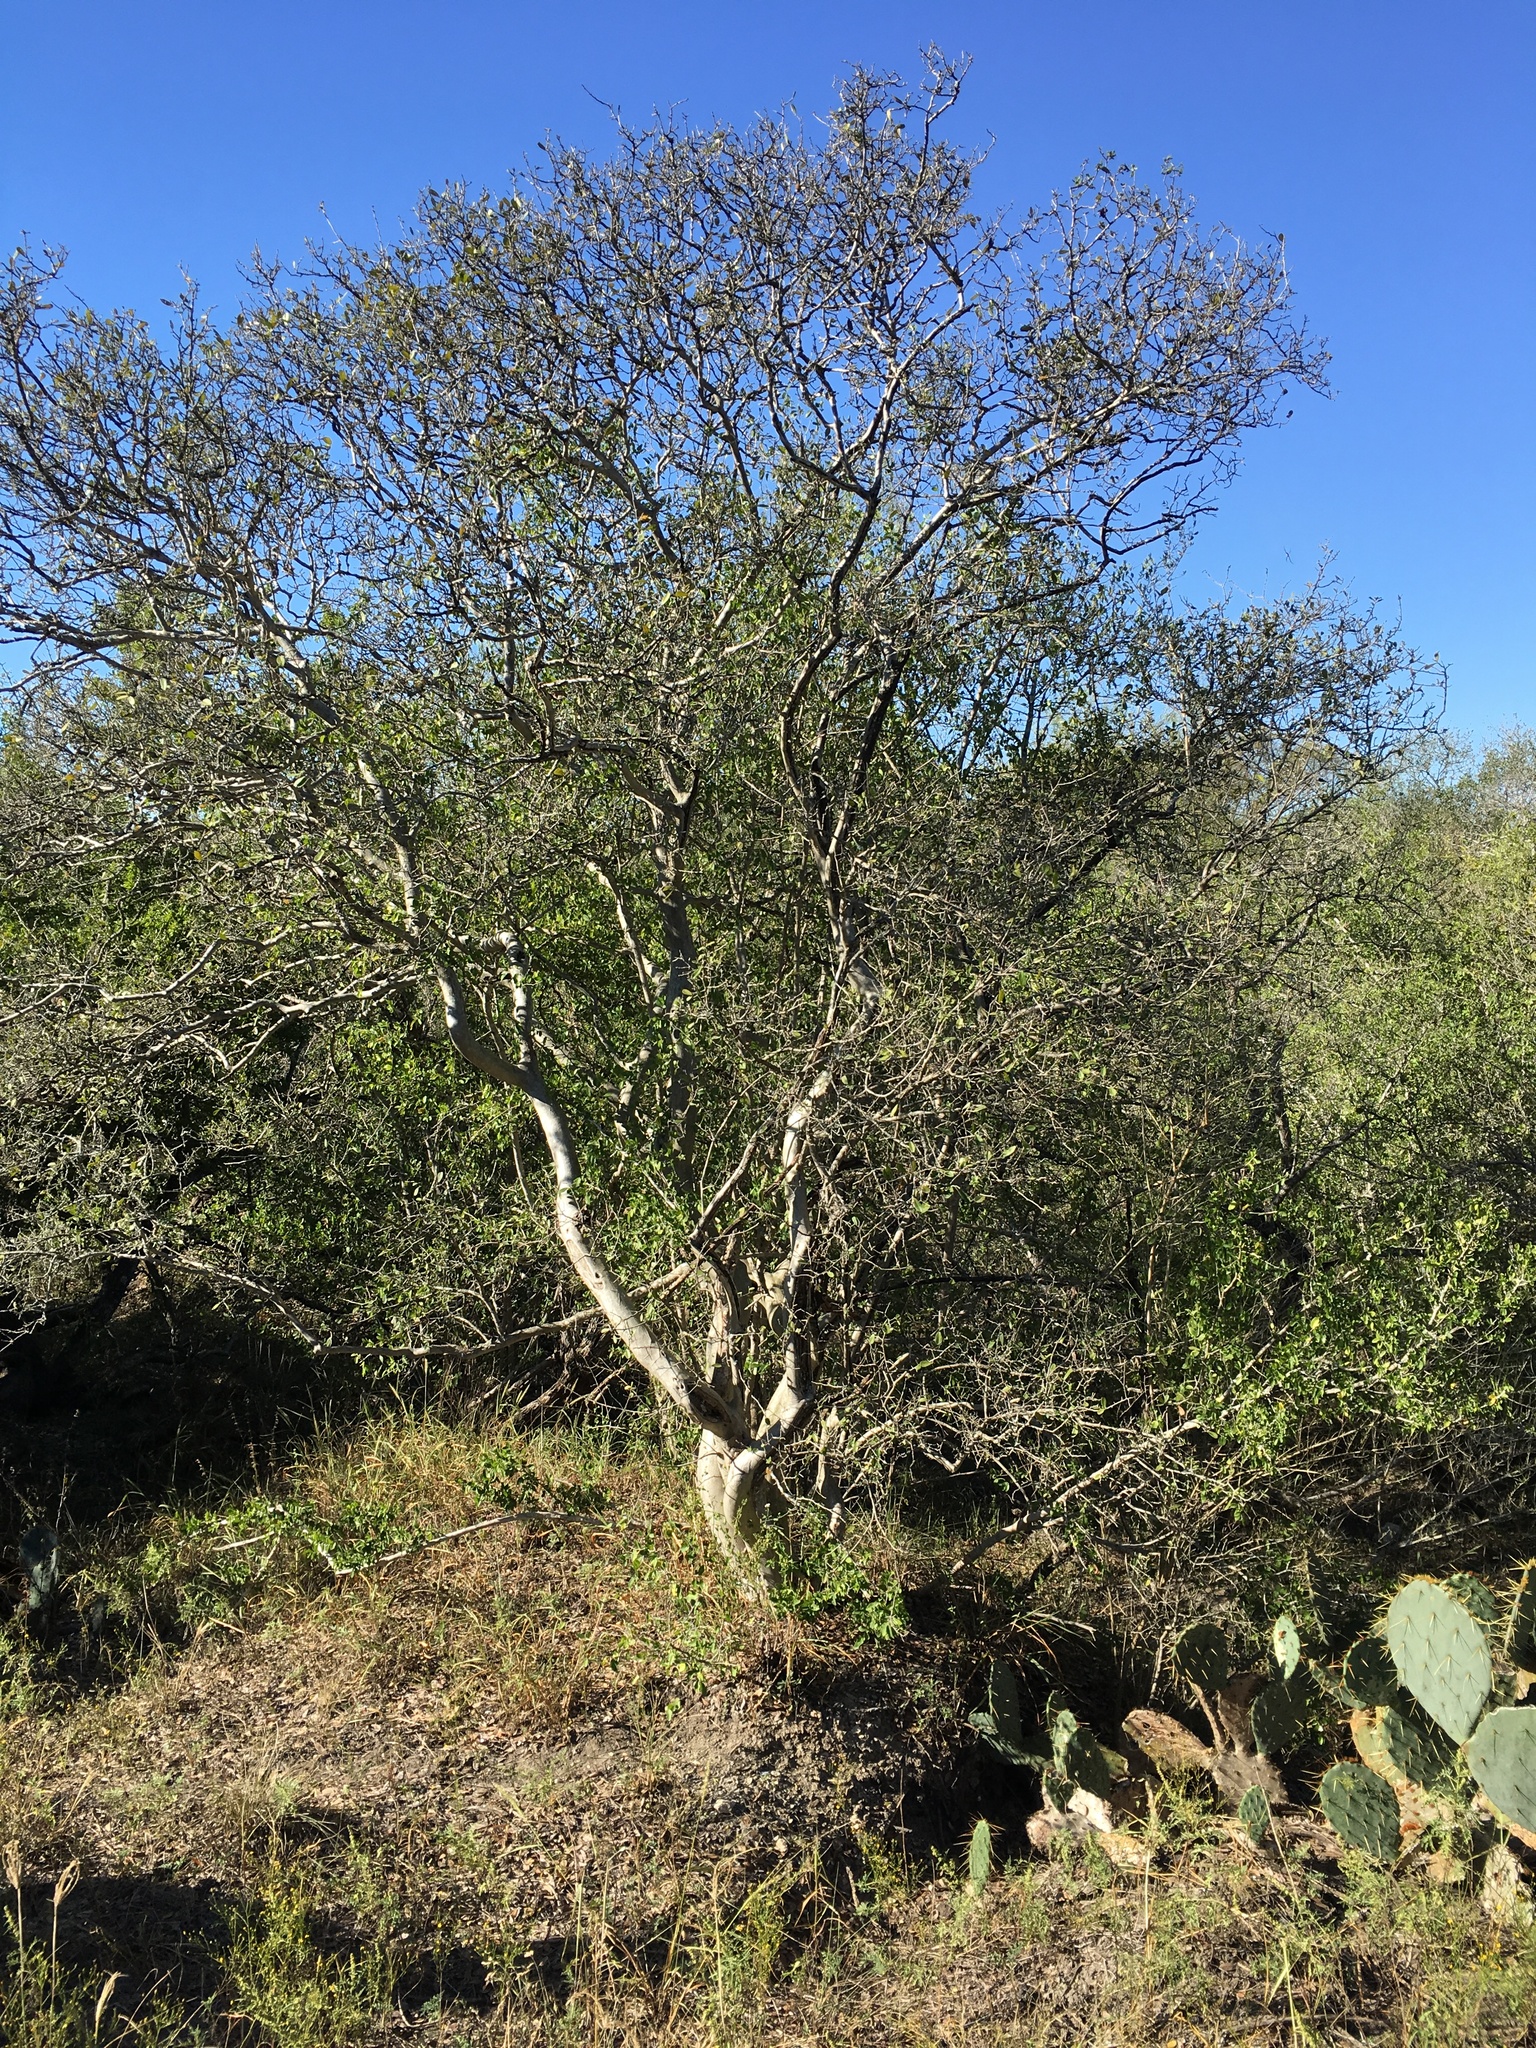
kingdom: Plantae
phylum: Tracheophyta
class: Magnoliopsida
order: Ericales
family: Ebenaceae
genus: Diospyros
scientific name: Diospyros texana
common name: Texas persimmon
